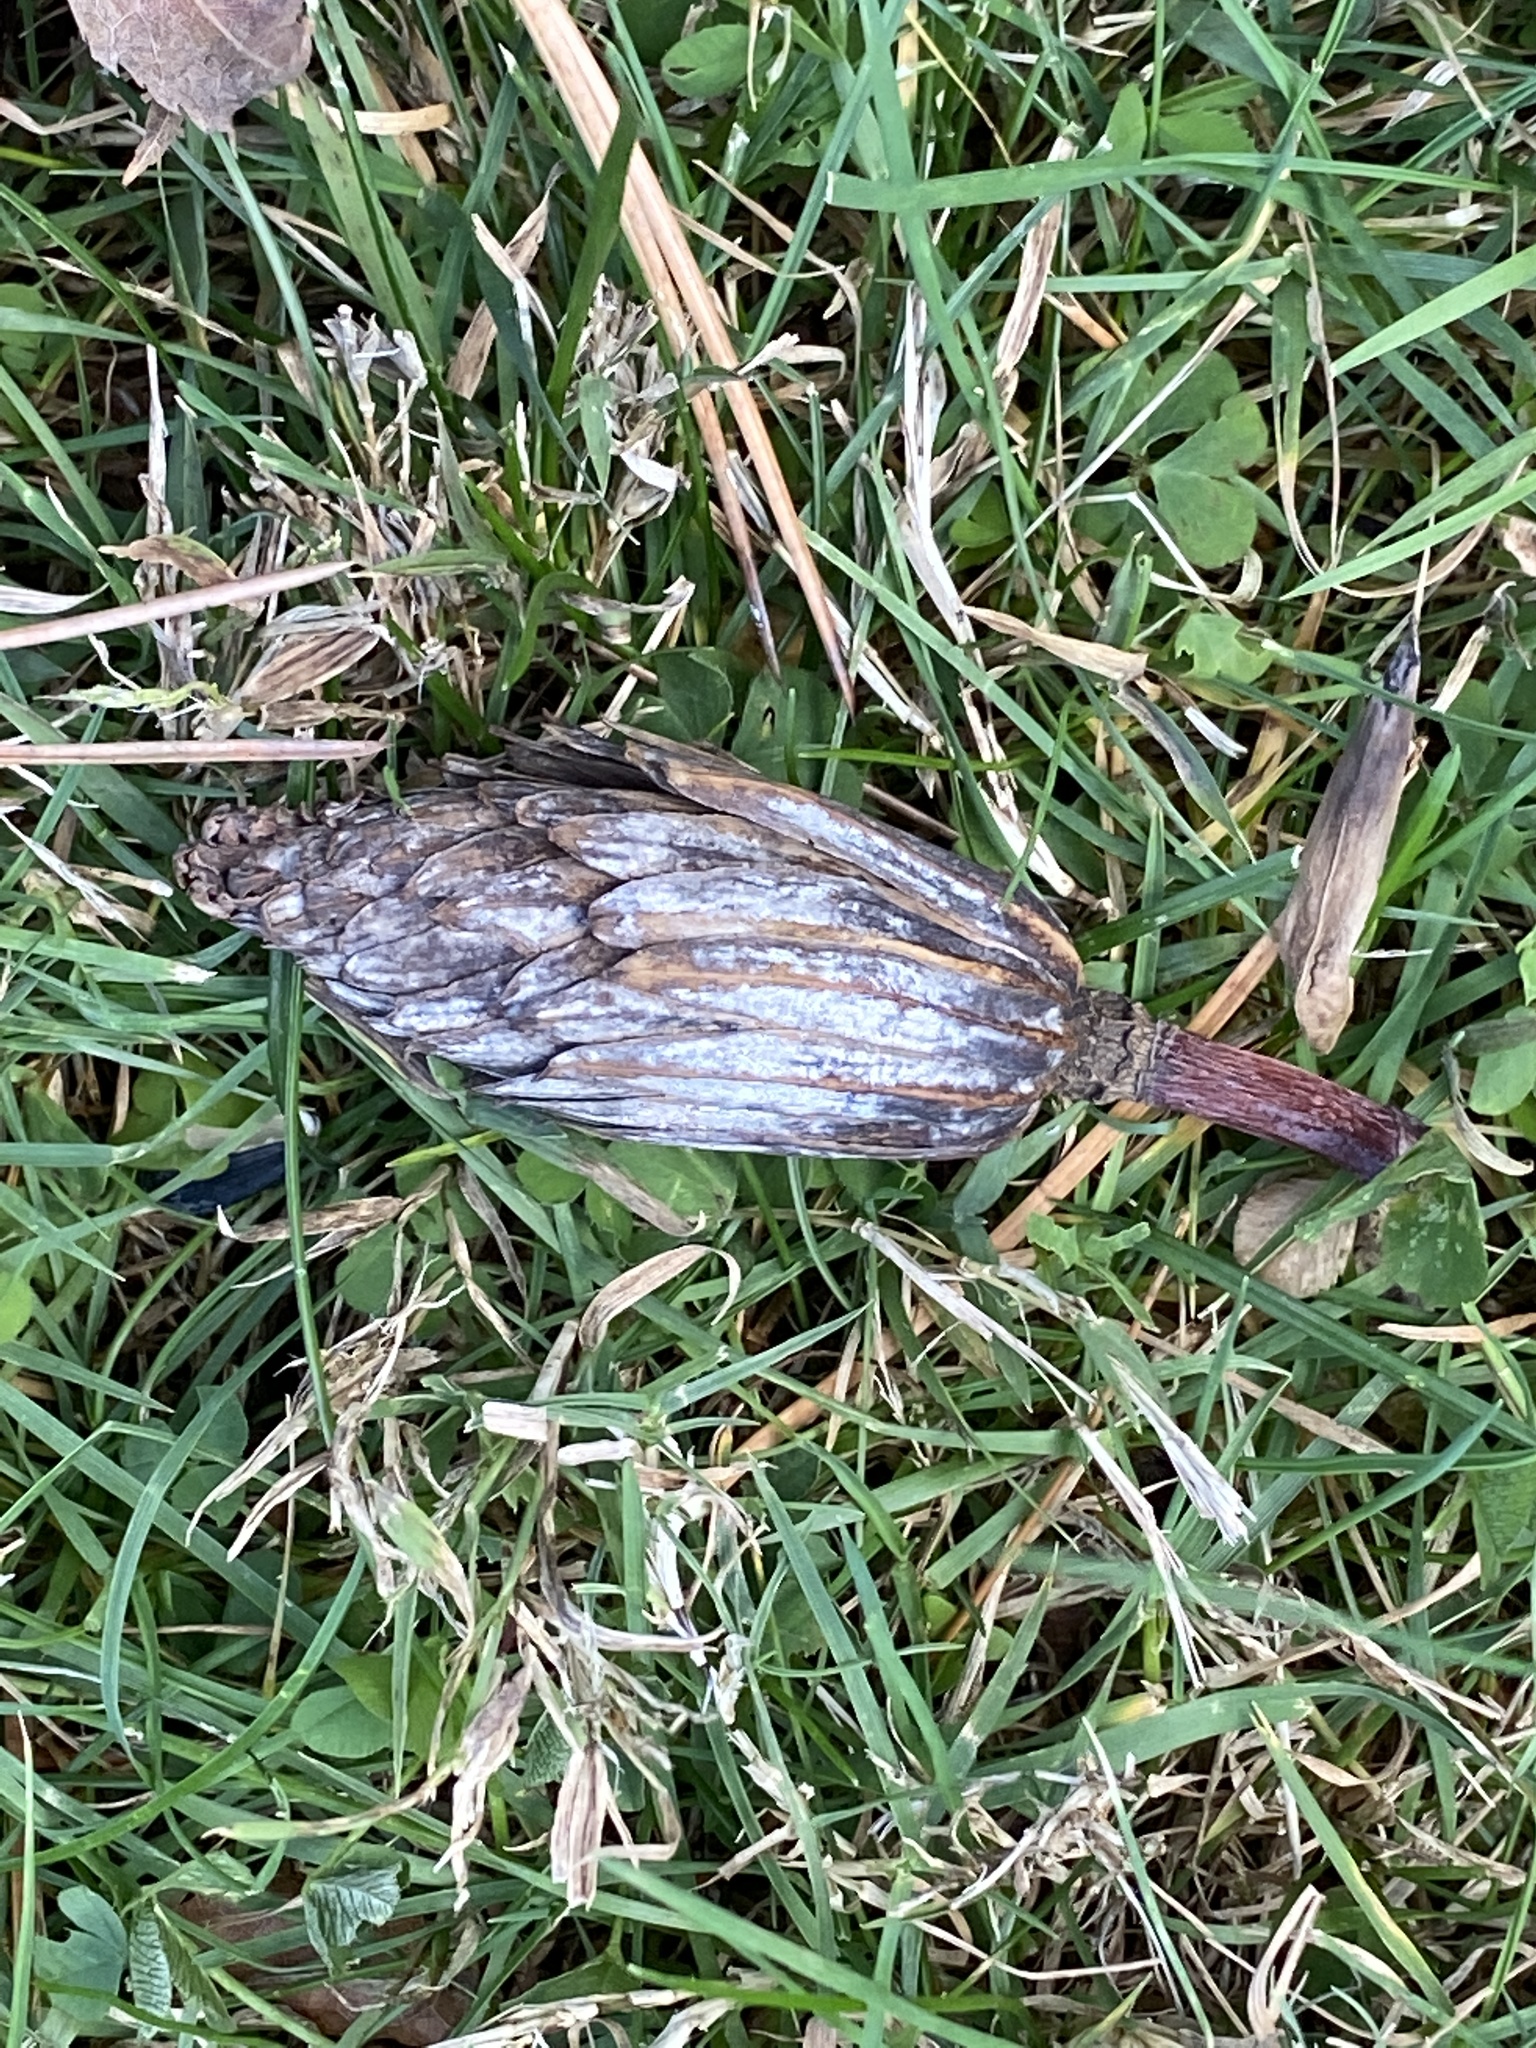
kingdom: Plantae
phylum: Tracheophyta
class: Magnoliopsida
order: Magnoliales
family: Magnoliaceae
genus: Liriodendron
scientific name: Liriodendron tulipifera
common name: Tulip tree
